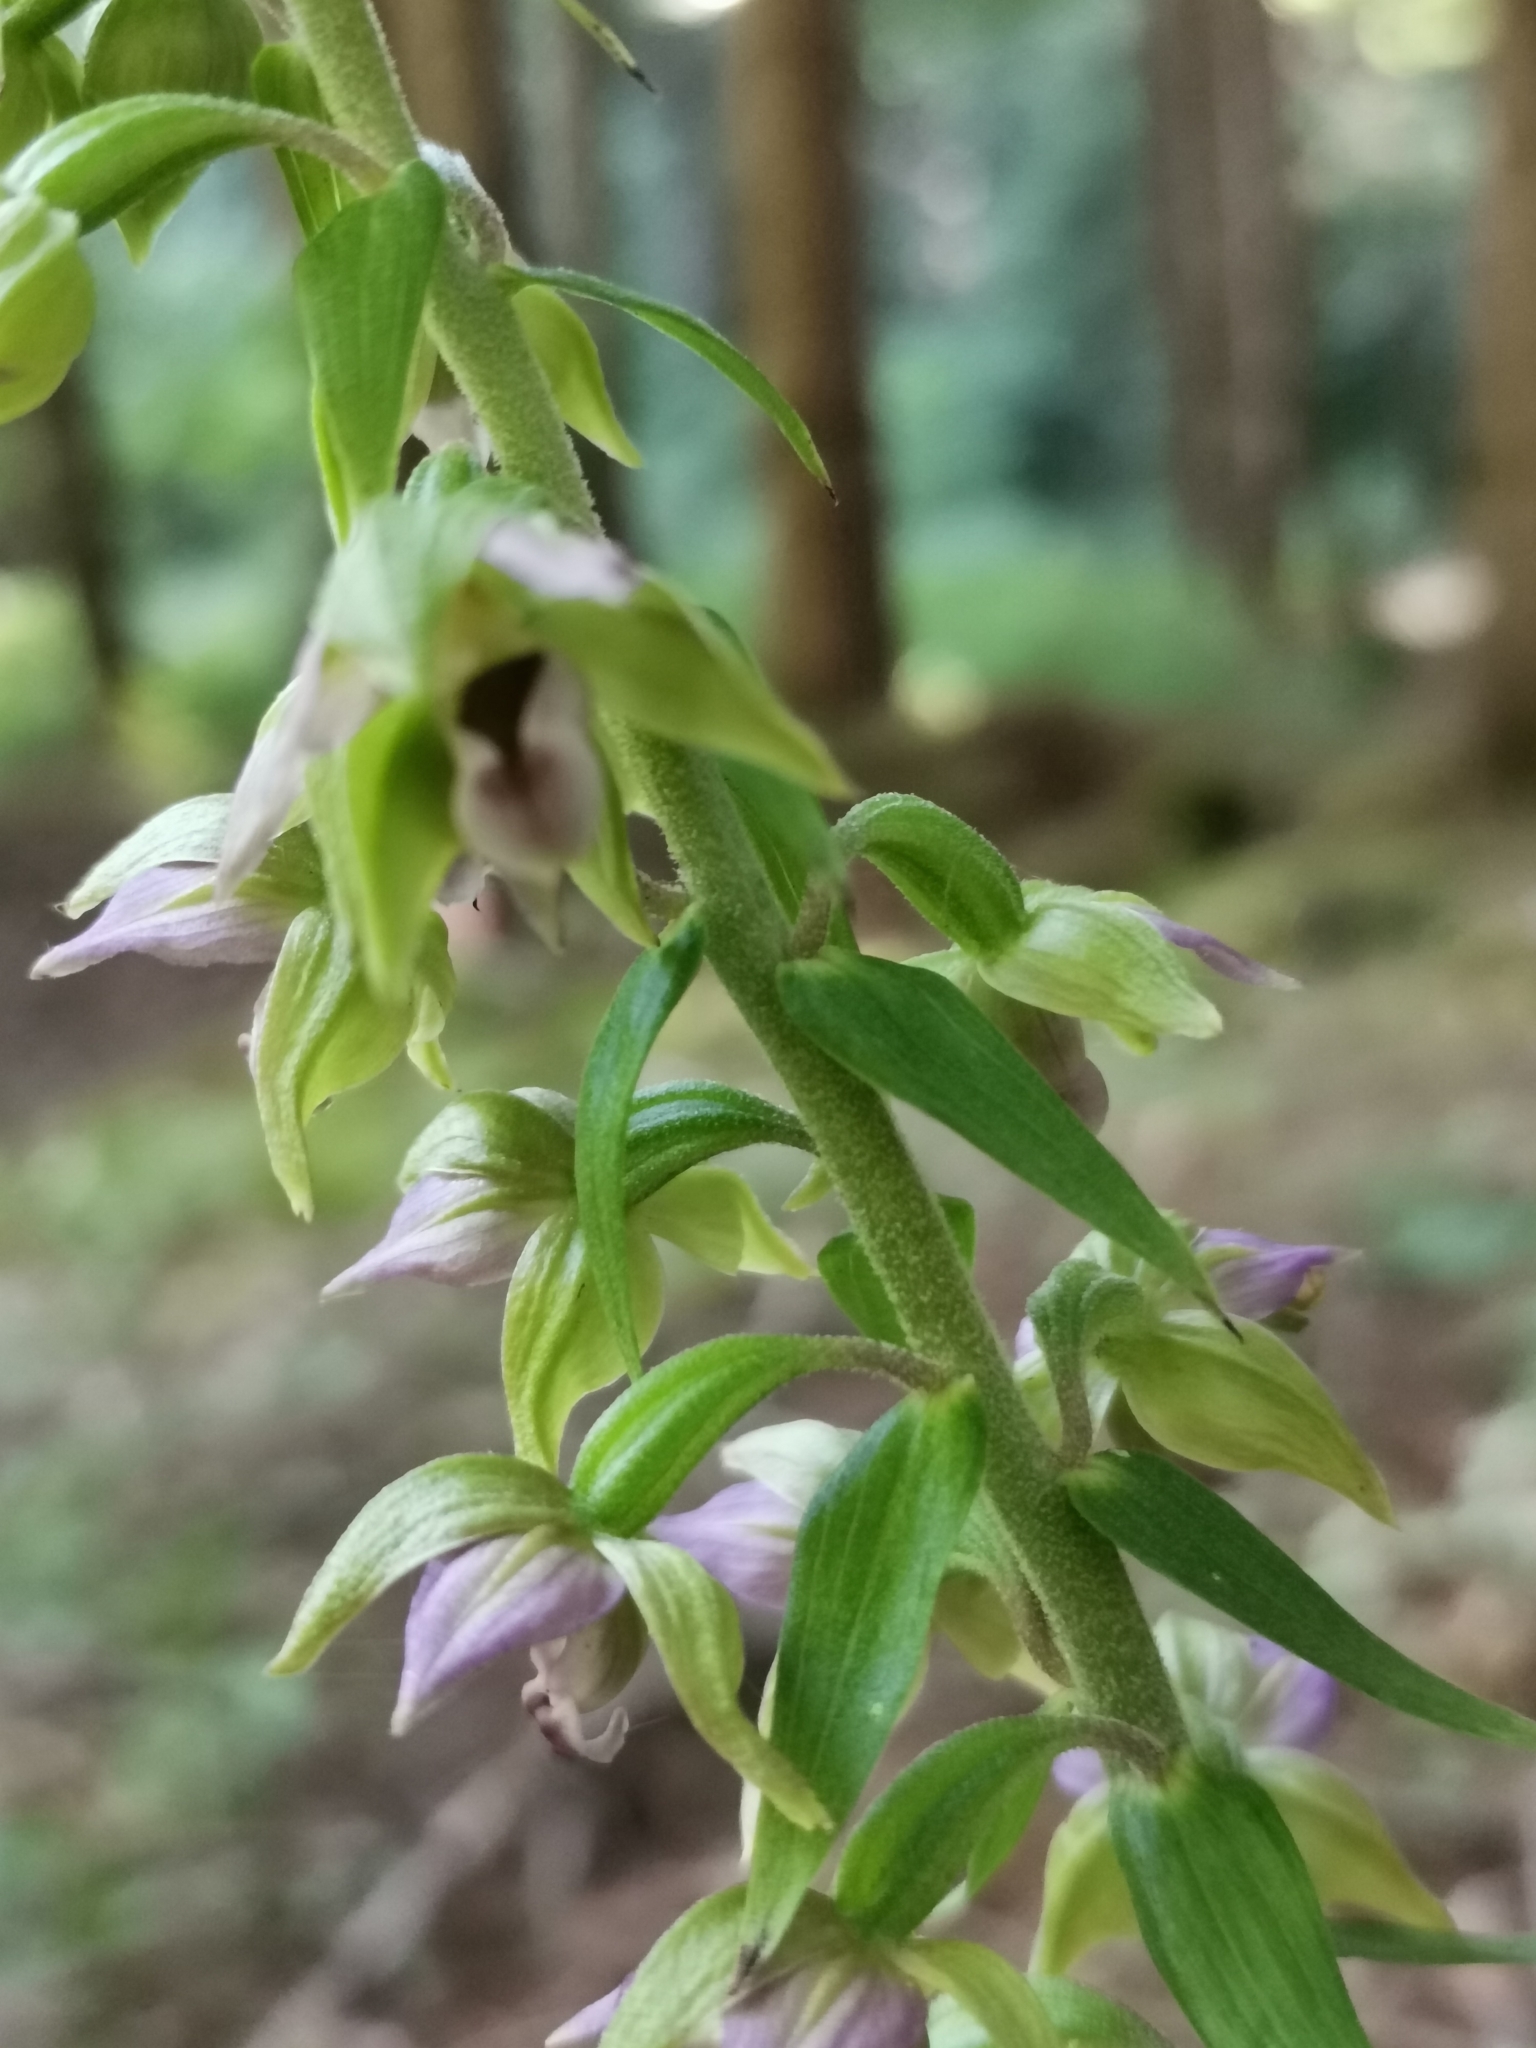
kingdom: Plantae
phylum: Tracheophyta
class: Liliopsida
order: Asparagales
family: Orchidaceae
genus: Epipactis
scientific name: Epipactis helleborine
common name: Broad-leaved helleborine
